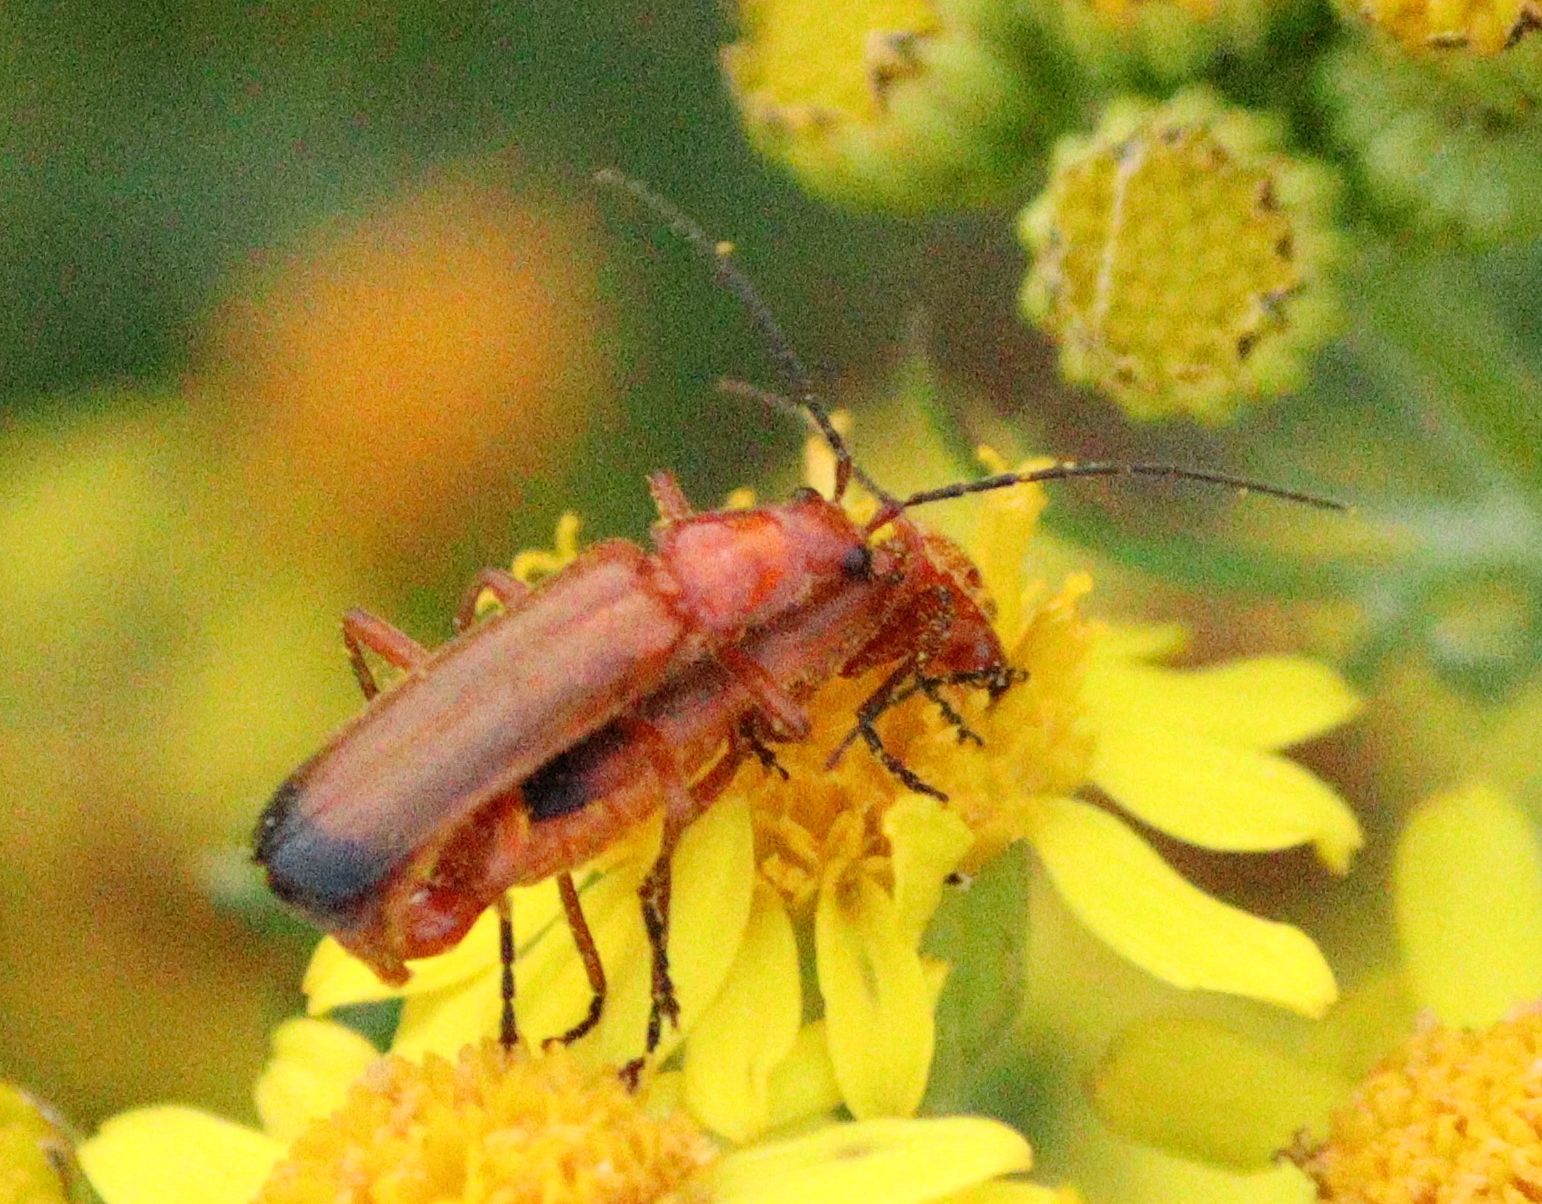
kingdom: Animalia
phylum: Arthropoda
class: Insecta
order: Coleoptera
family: Cantharidae
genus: Rhagonycha
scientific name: Rhagonycha fulva
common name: Common red soldier beetle
